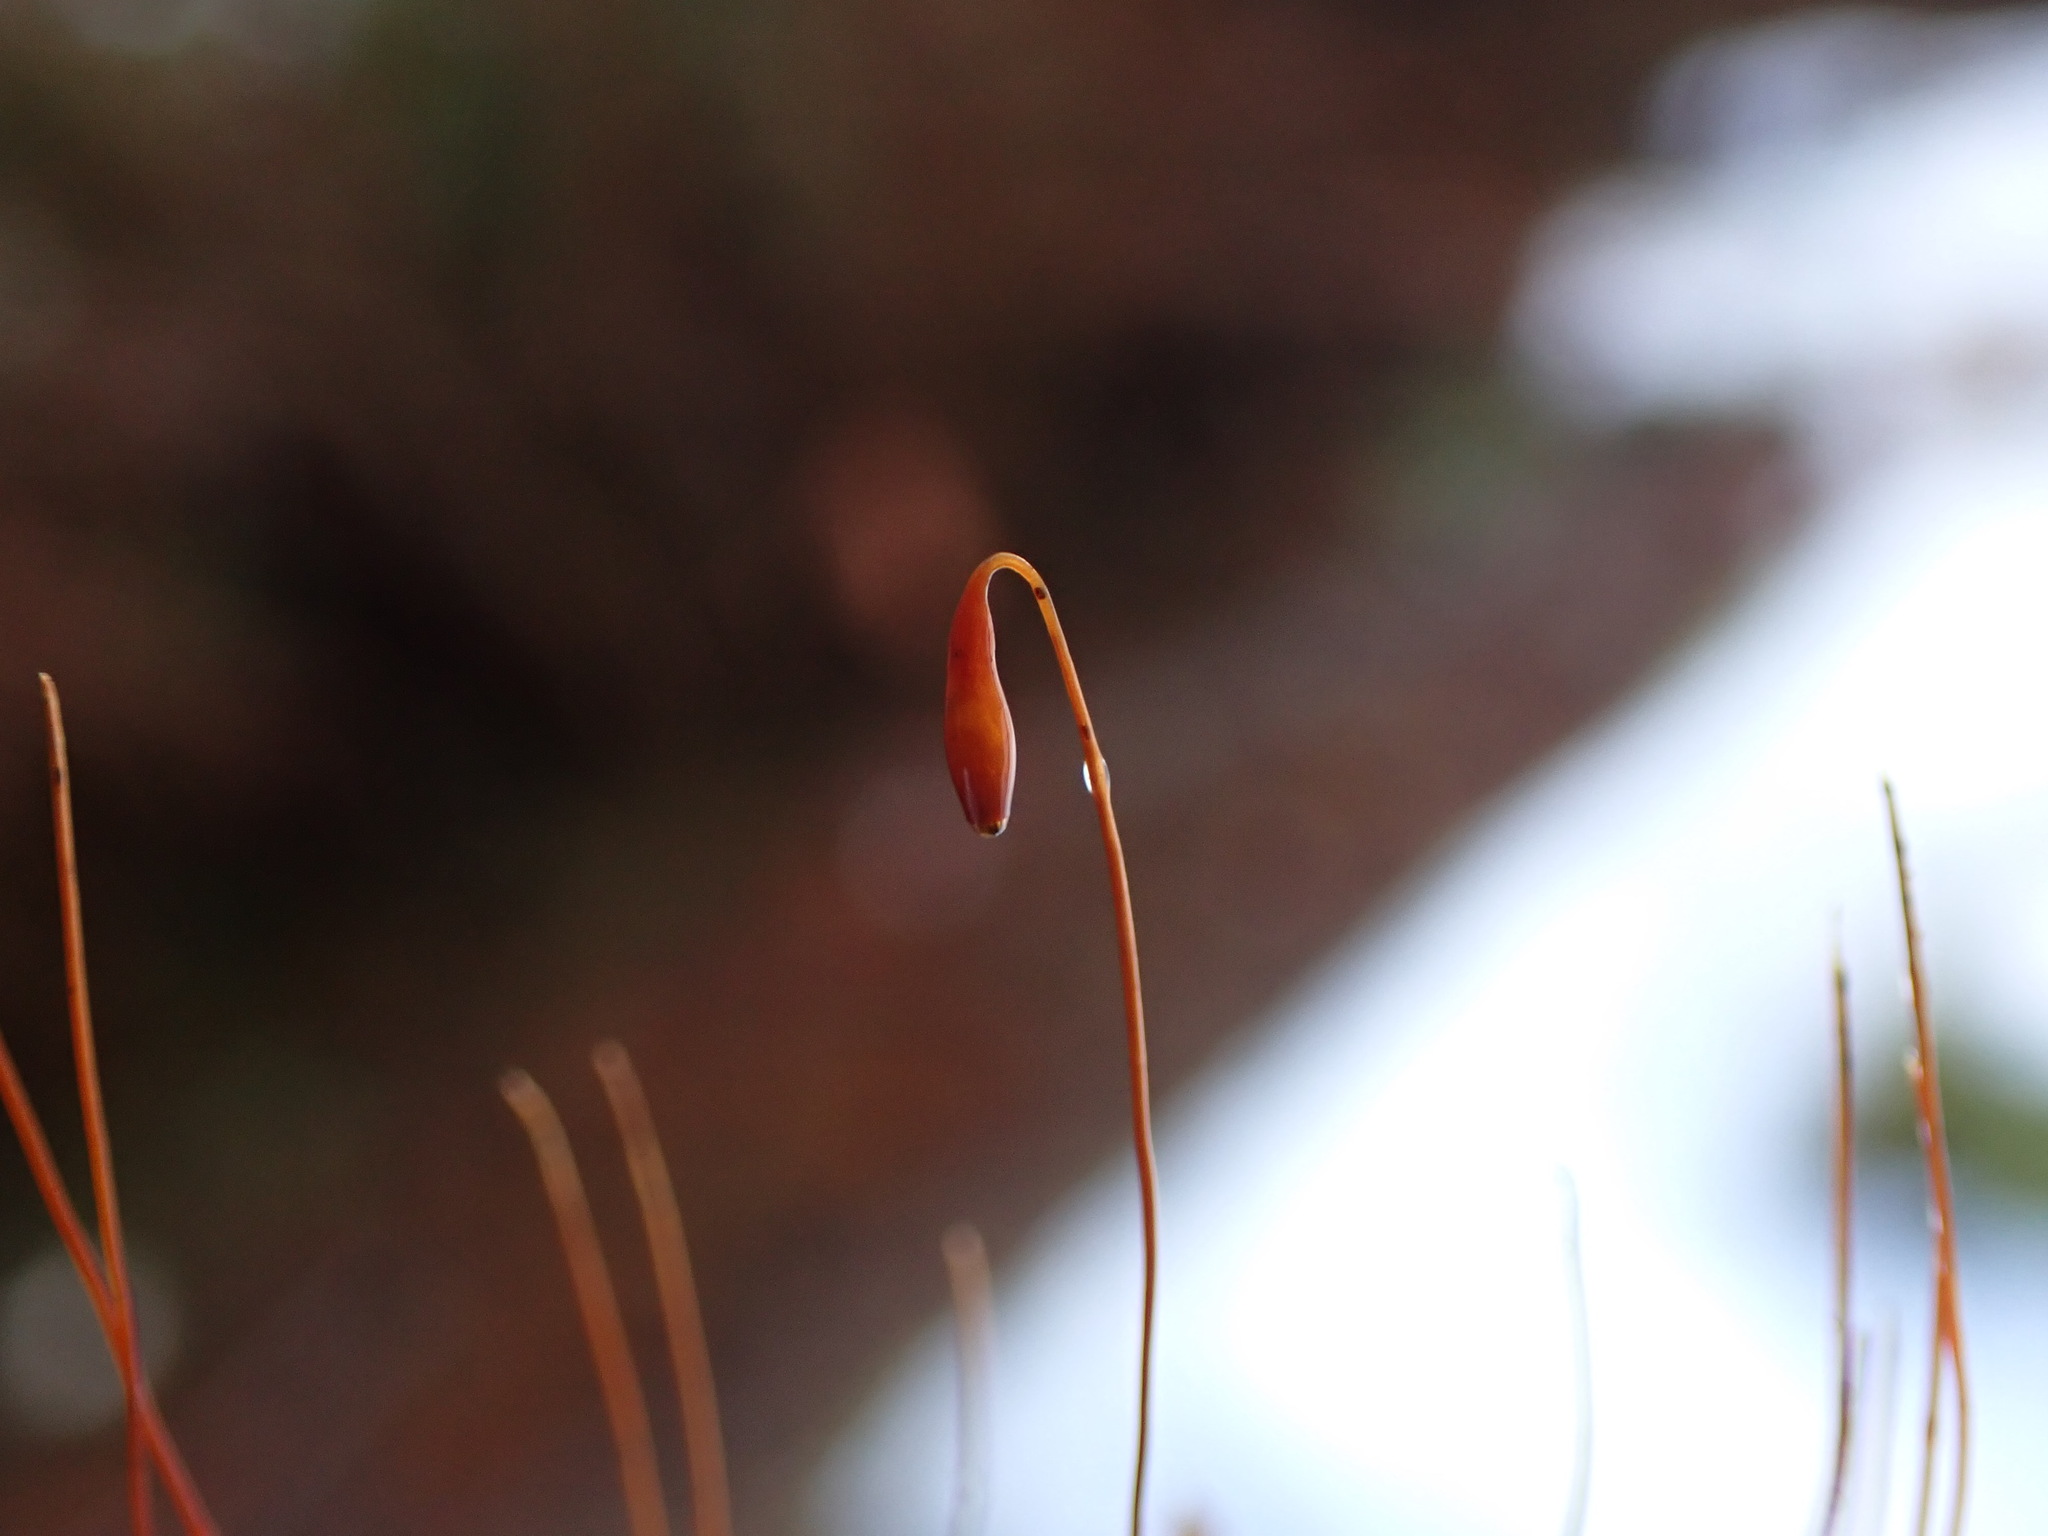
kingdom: Plantae
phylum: Bryophyta
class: Bryopsida
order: Bryales
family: Bryaceae
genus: Ptychostomum
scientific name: Ptychostomum pseudotriquetrum
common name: Long-leaved thread moss
